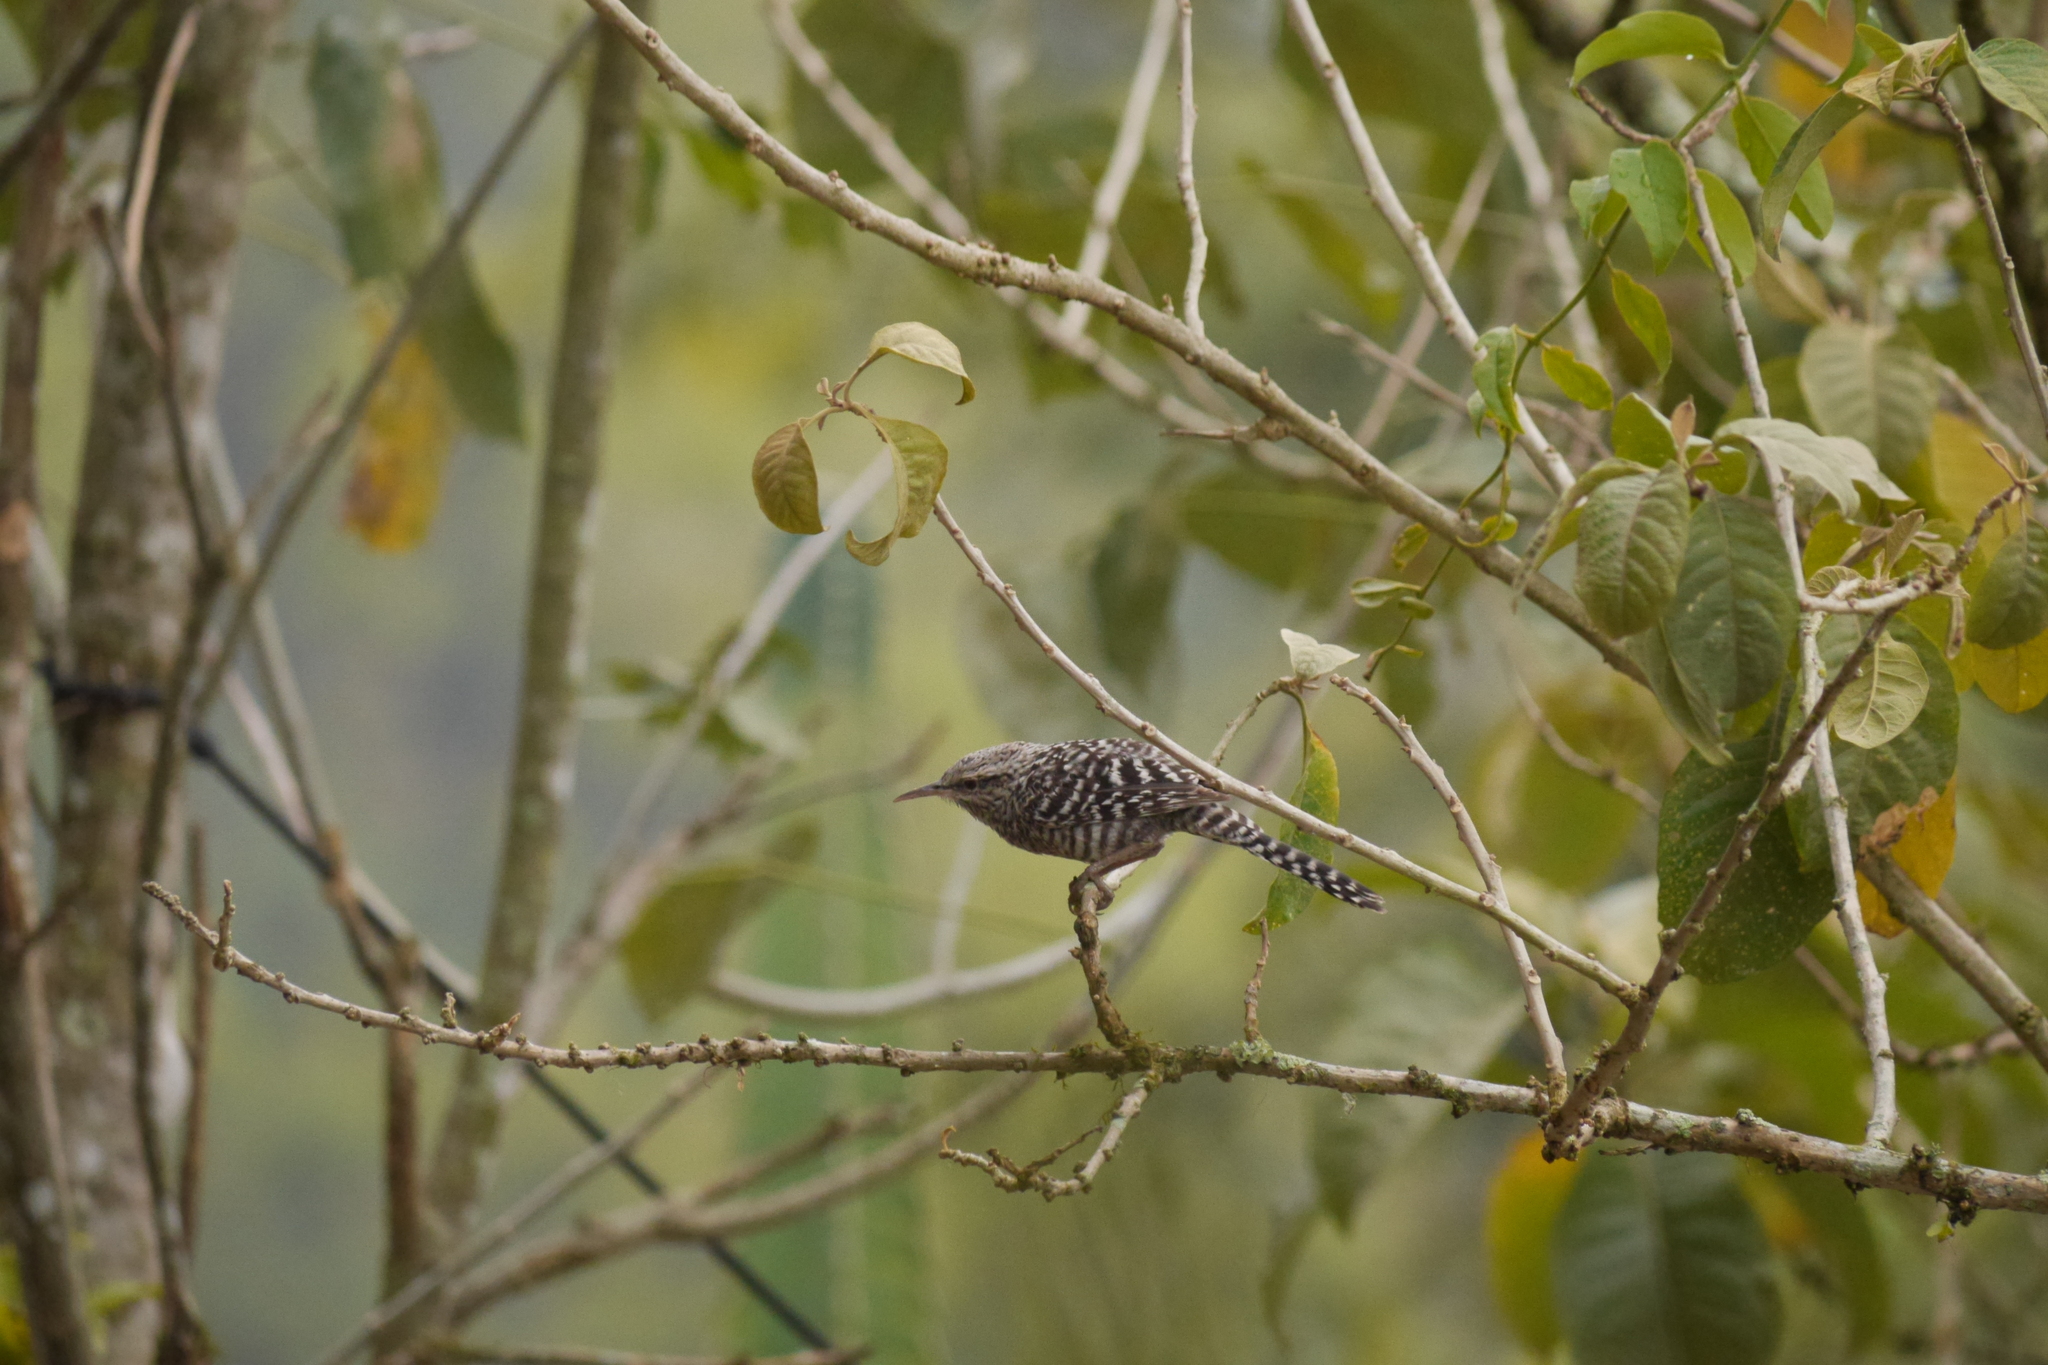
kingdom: Animalia
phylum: Chordata
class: Aves
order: Passeriformes
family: Troglodytidae
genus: Campylorhynchus
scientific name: Campylorhynchus fasciatus
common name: Fasciated wren
